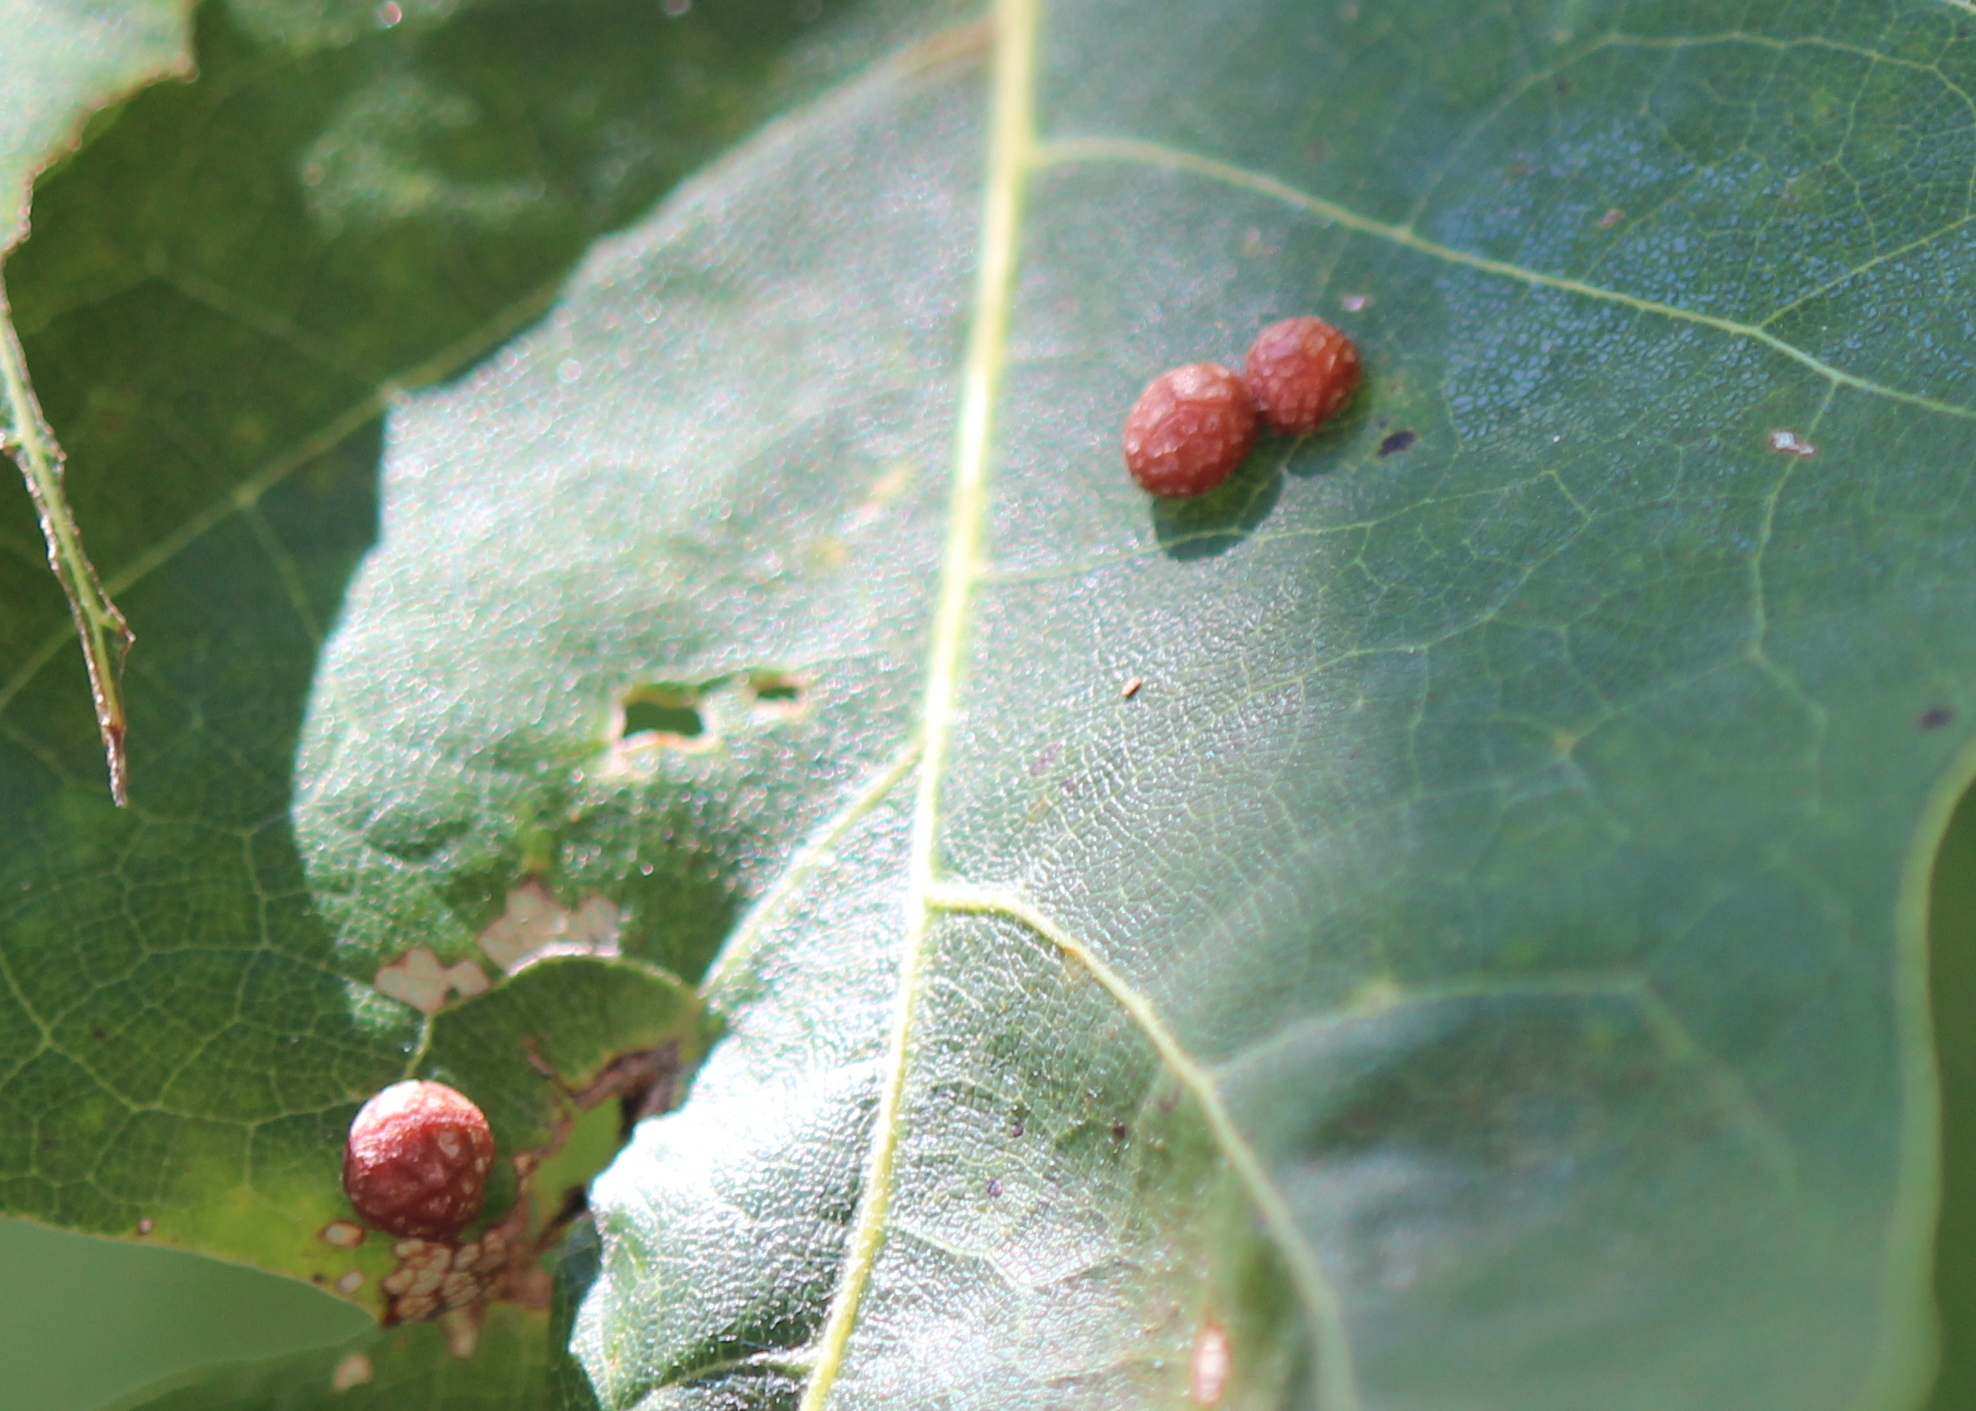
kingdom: Animalia
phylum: Arthropoda
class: Insecta
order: Diptera
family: Cecidomyiidae
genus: Polystepha
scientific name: Polystepha pilulae
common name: Oak leaf gall midge
